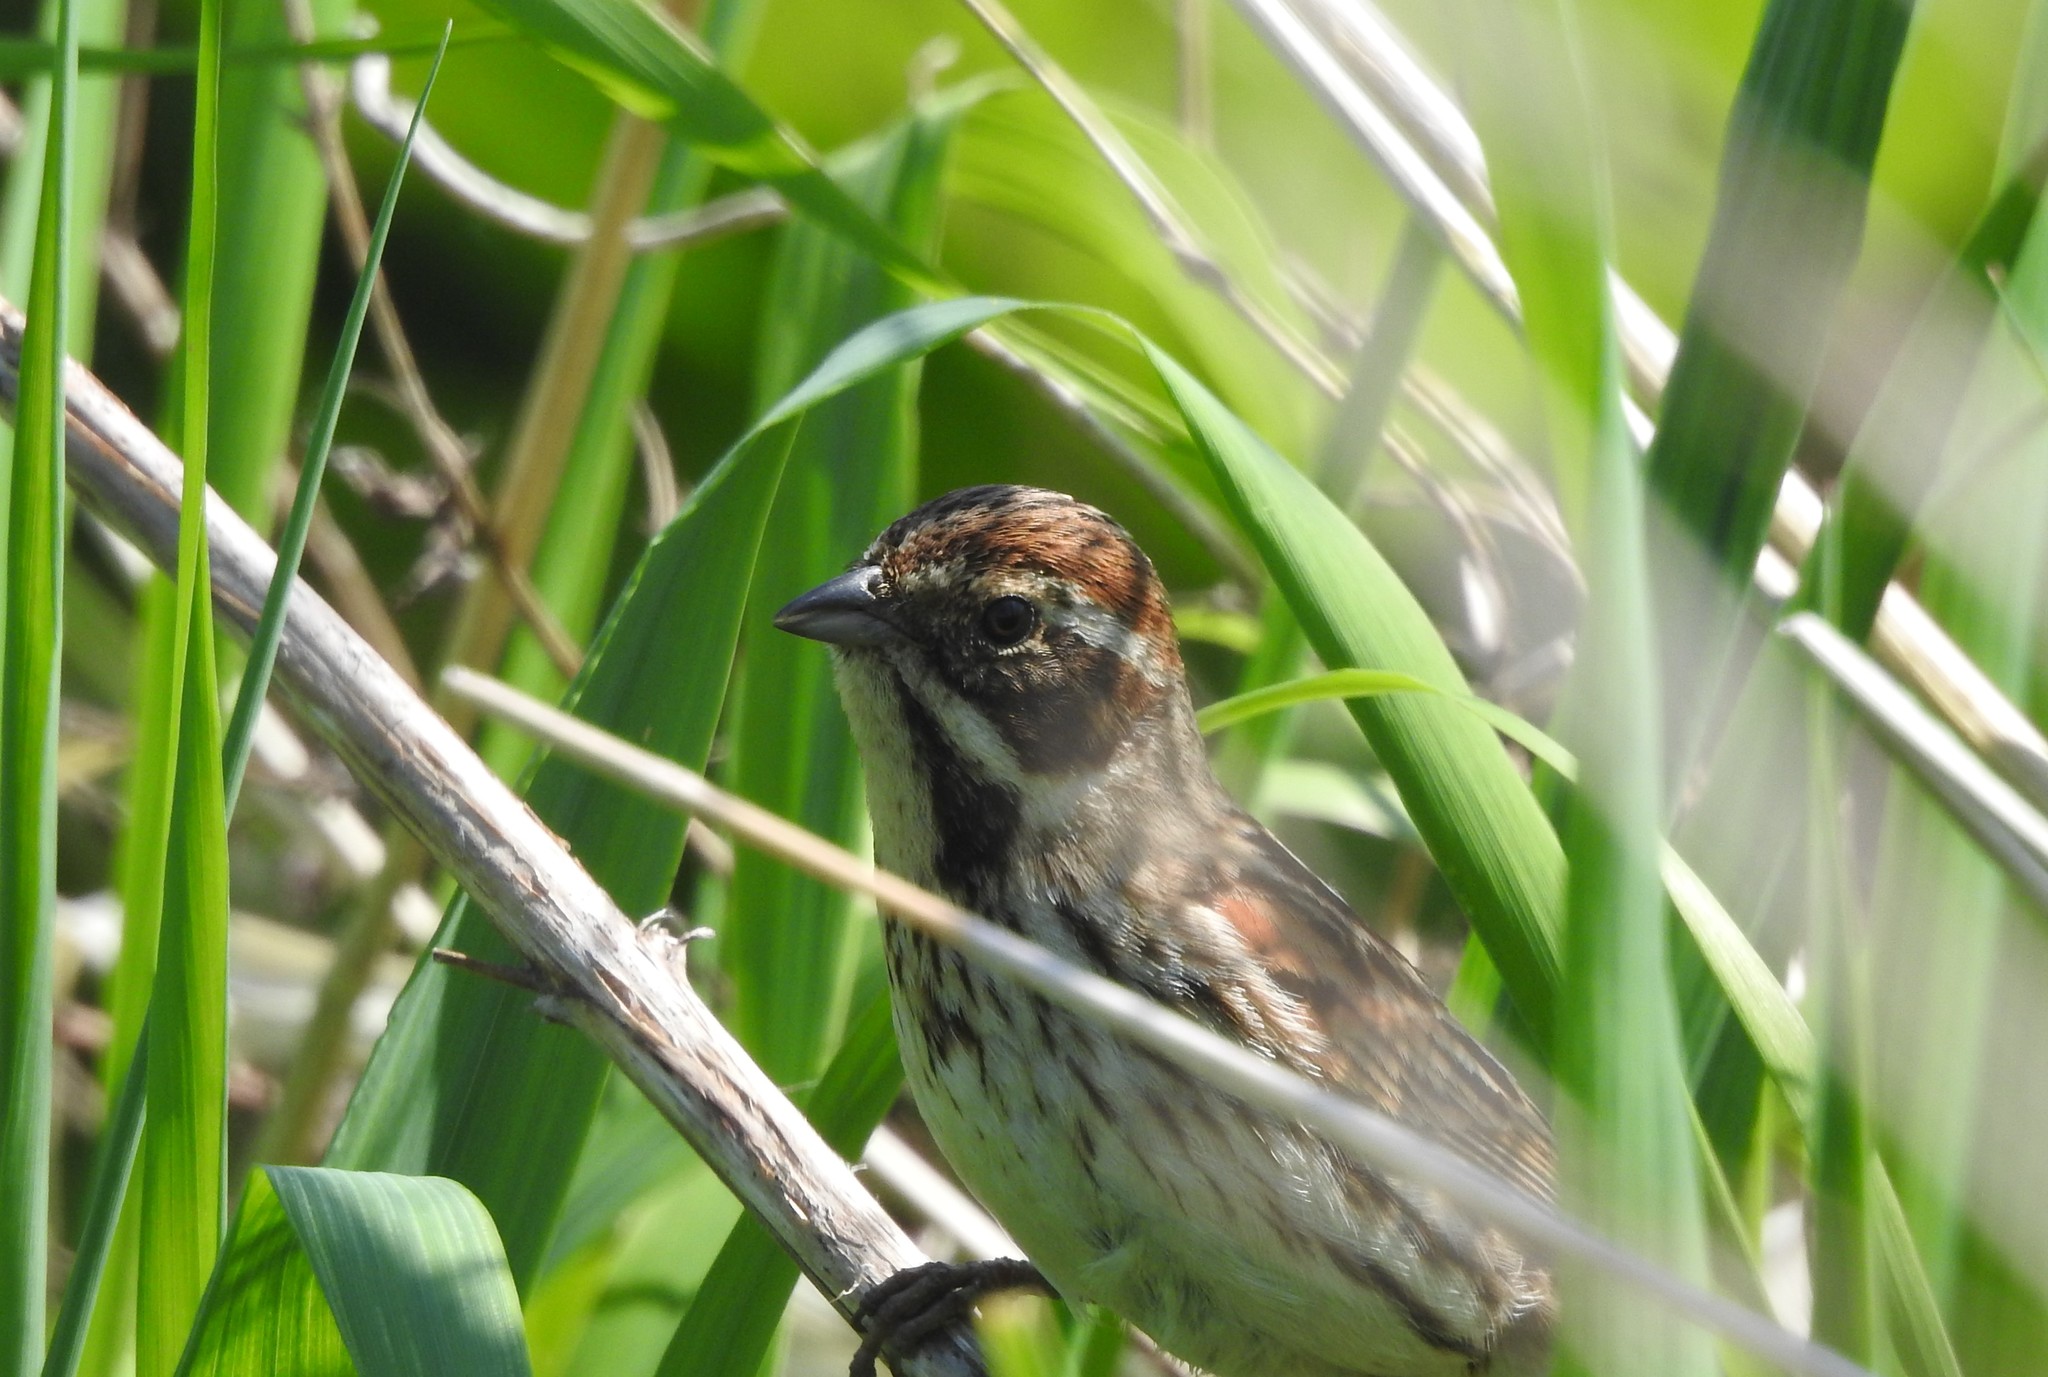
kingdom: Animalia
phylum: Chordata
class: Aves
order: Passeriformes
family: Emberizidae
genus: Emberiza
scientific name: Emberiza schoeniclus
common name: Reed bunting
